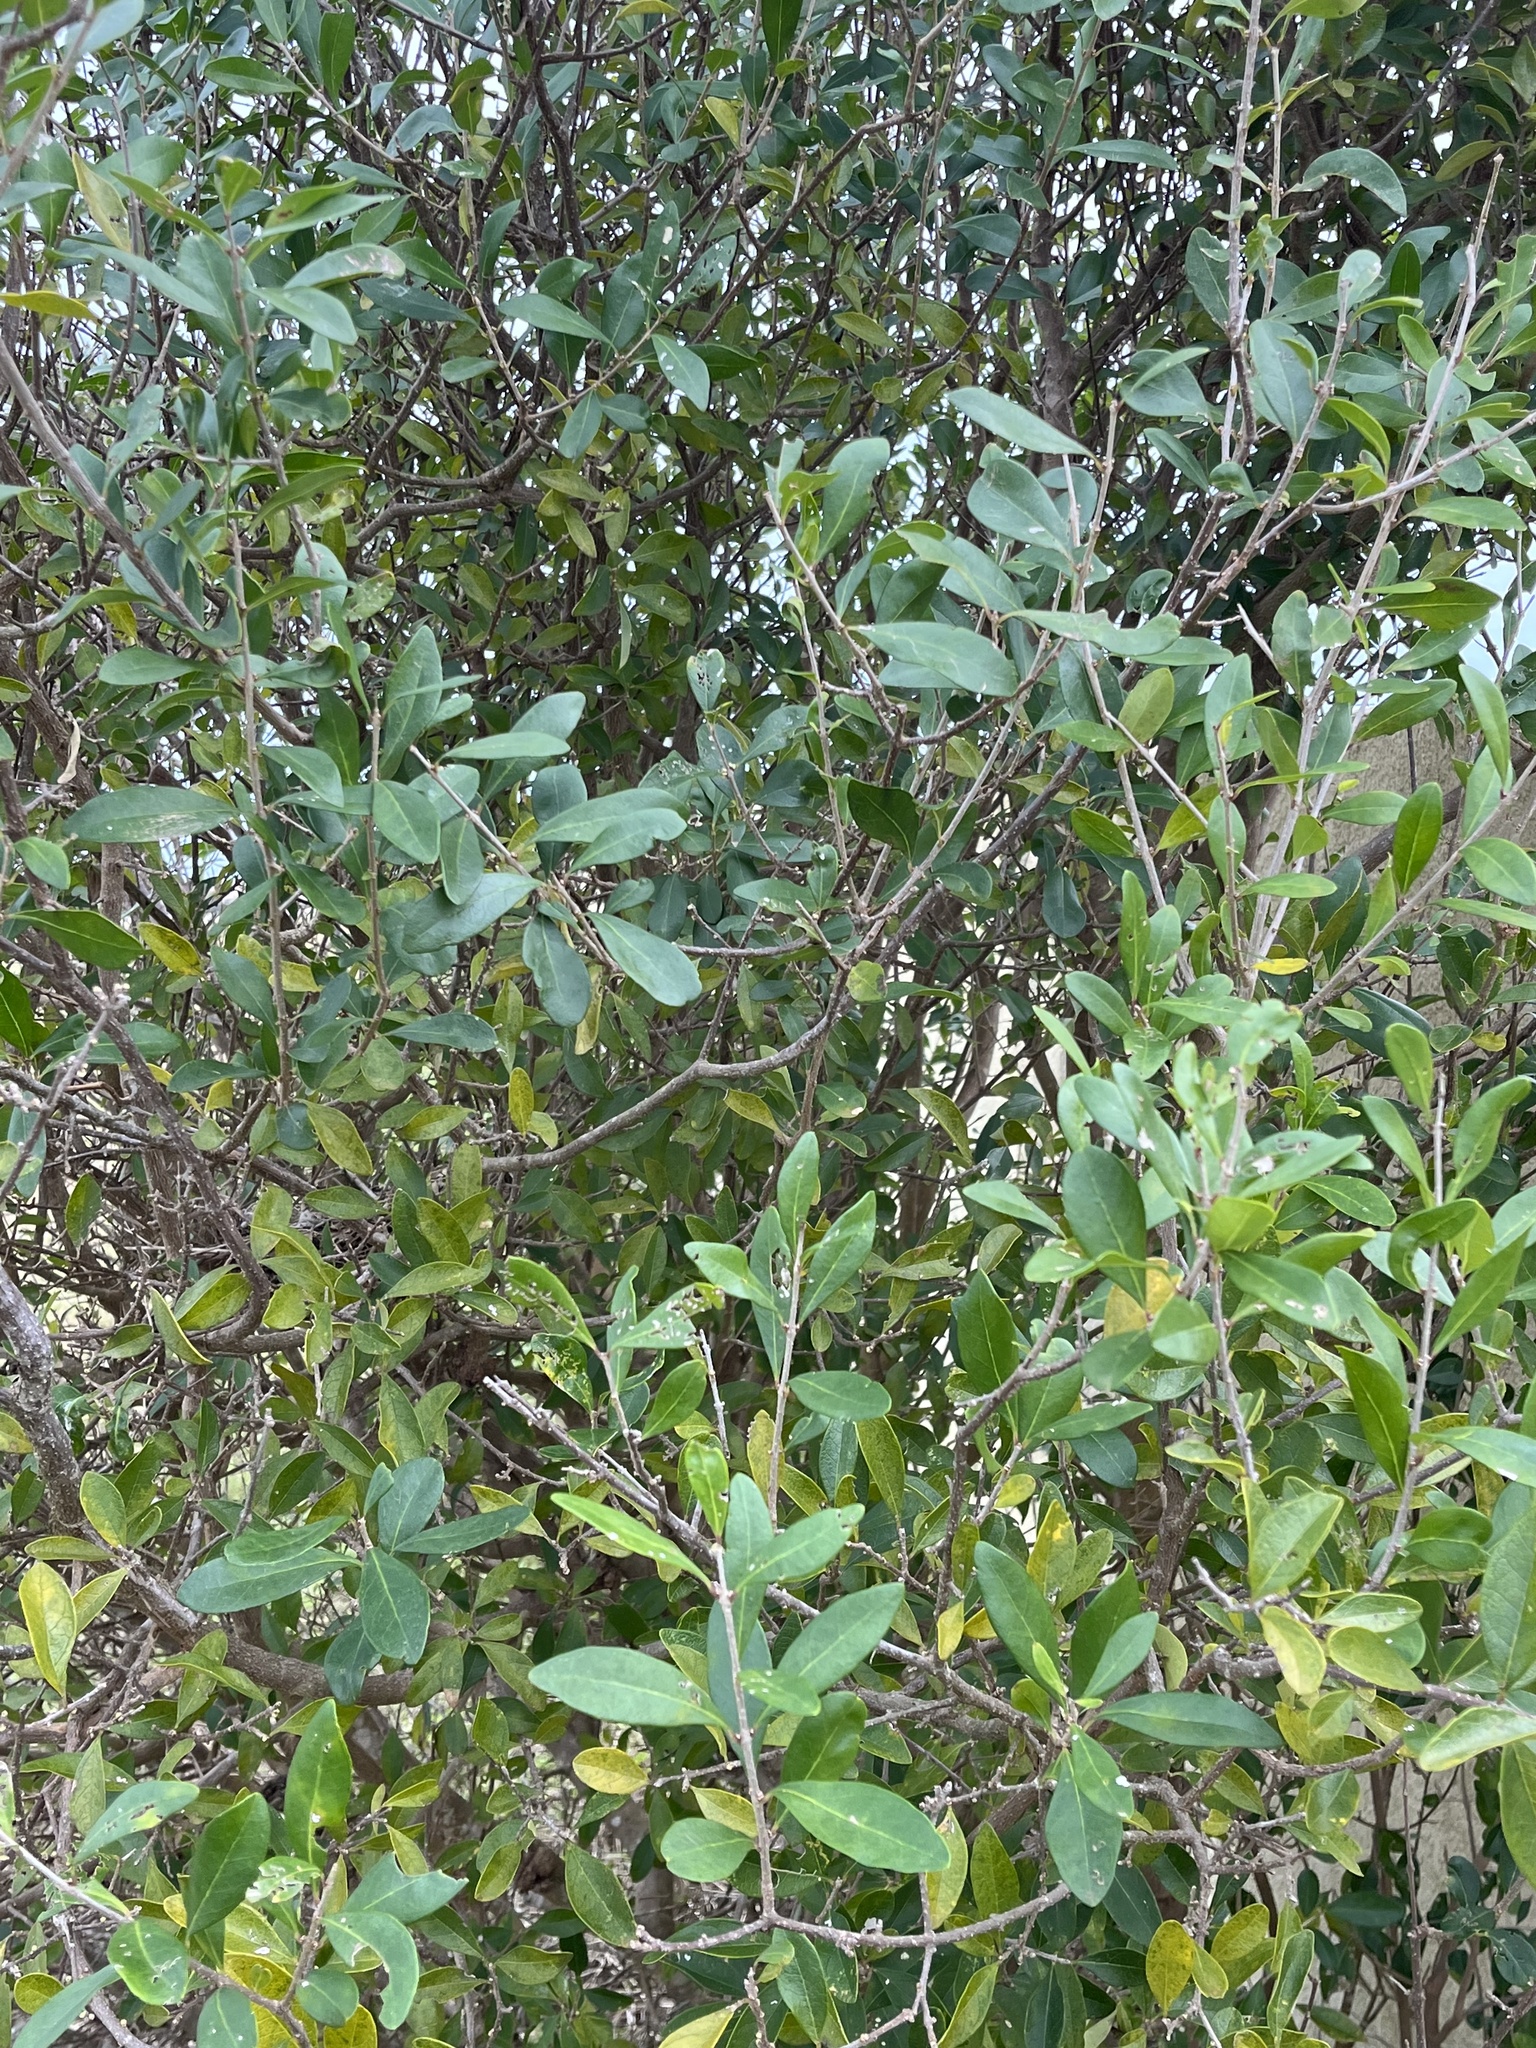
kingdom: Plantae
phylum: Tracheophyta
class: Magnoliopsida
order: Lamiales
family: Oleaceae
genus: Forestiera
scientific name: Forestiera segregata
